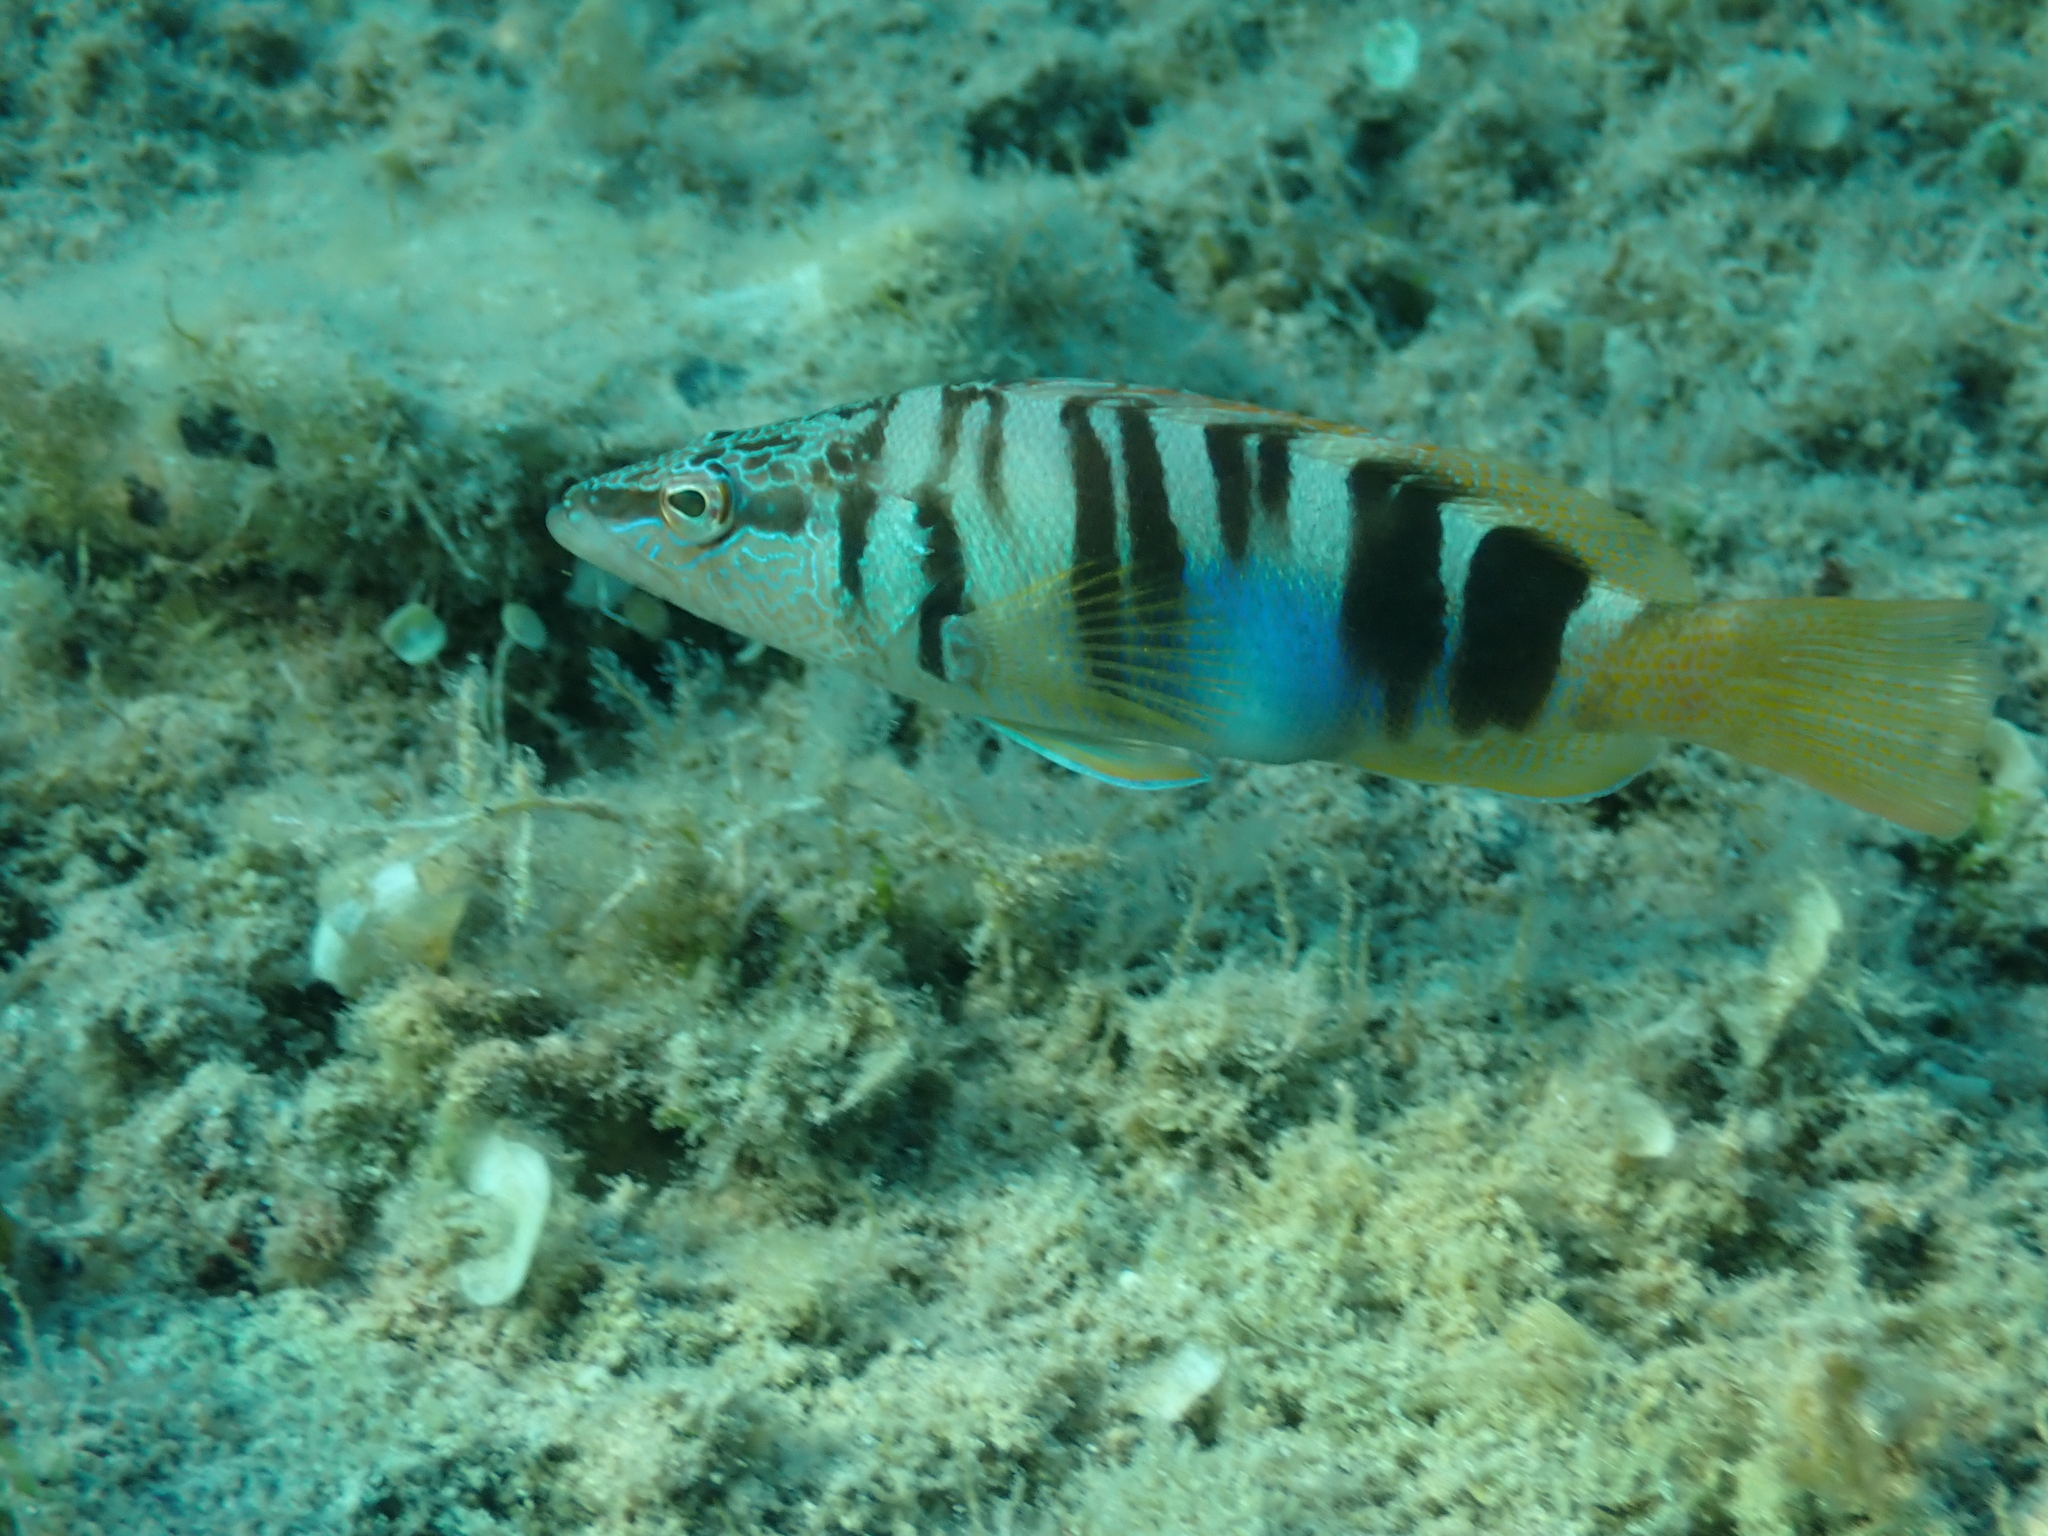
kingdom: Animalia
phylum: Chordata
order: Perciformes
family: Serranidae
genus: Serranus
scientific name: Serranus scriba
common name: Painted comber
